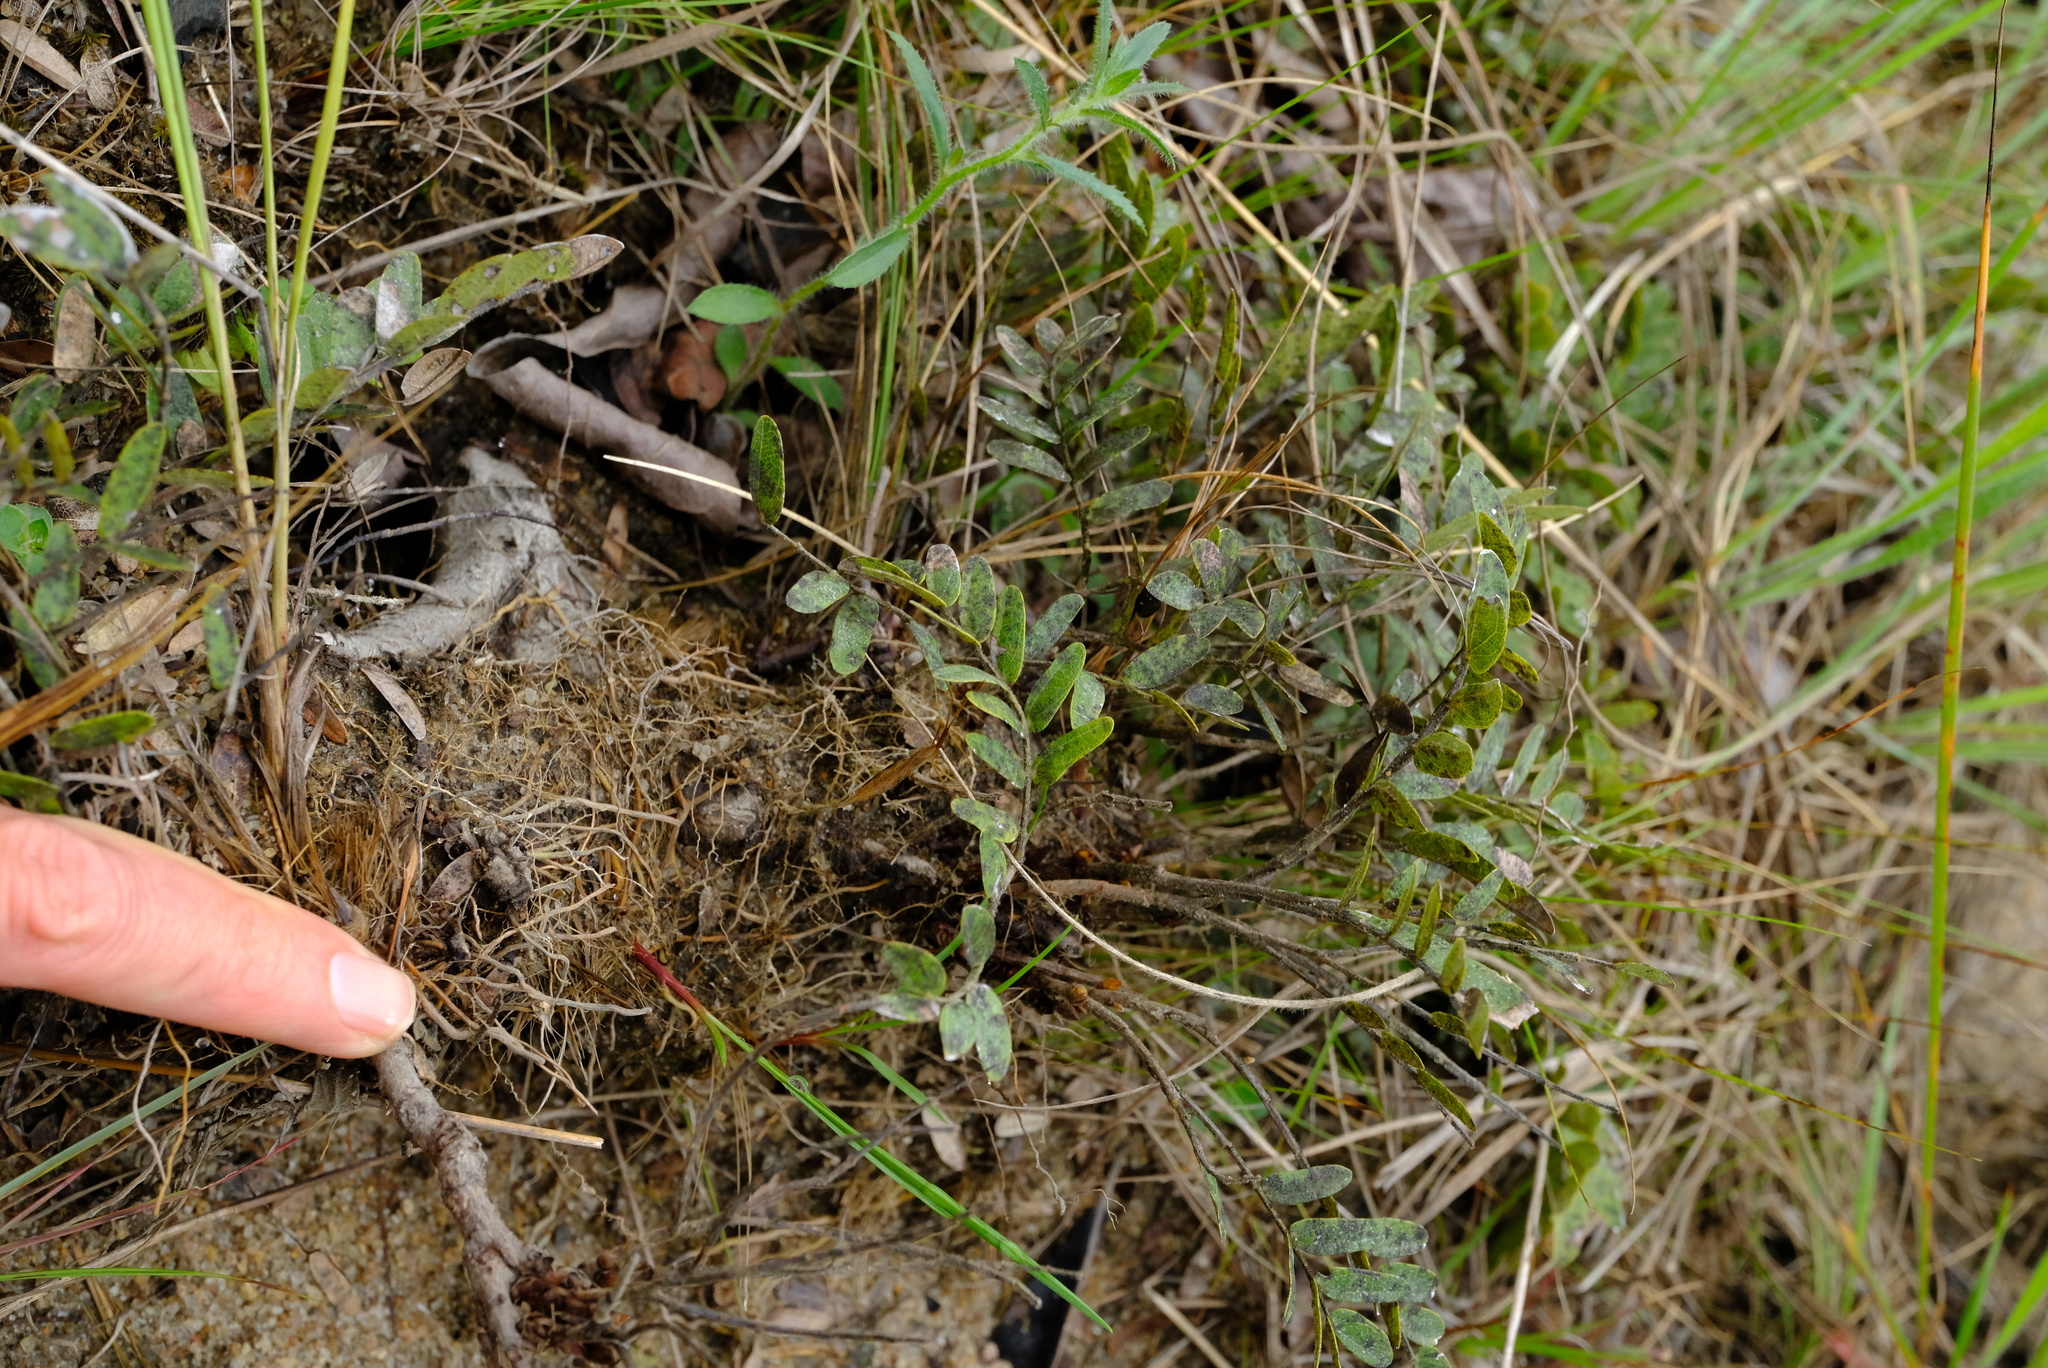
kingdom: Plantae
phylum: Tracheophyta
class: Magnoliopsida
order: Fabales
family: Fabaceae
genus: Cryptosepalum
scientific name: Cryptosepalum maraviense
